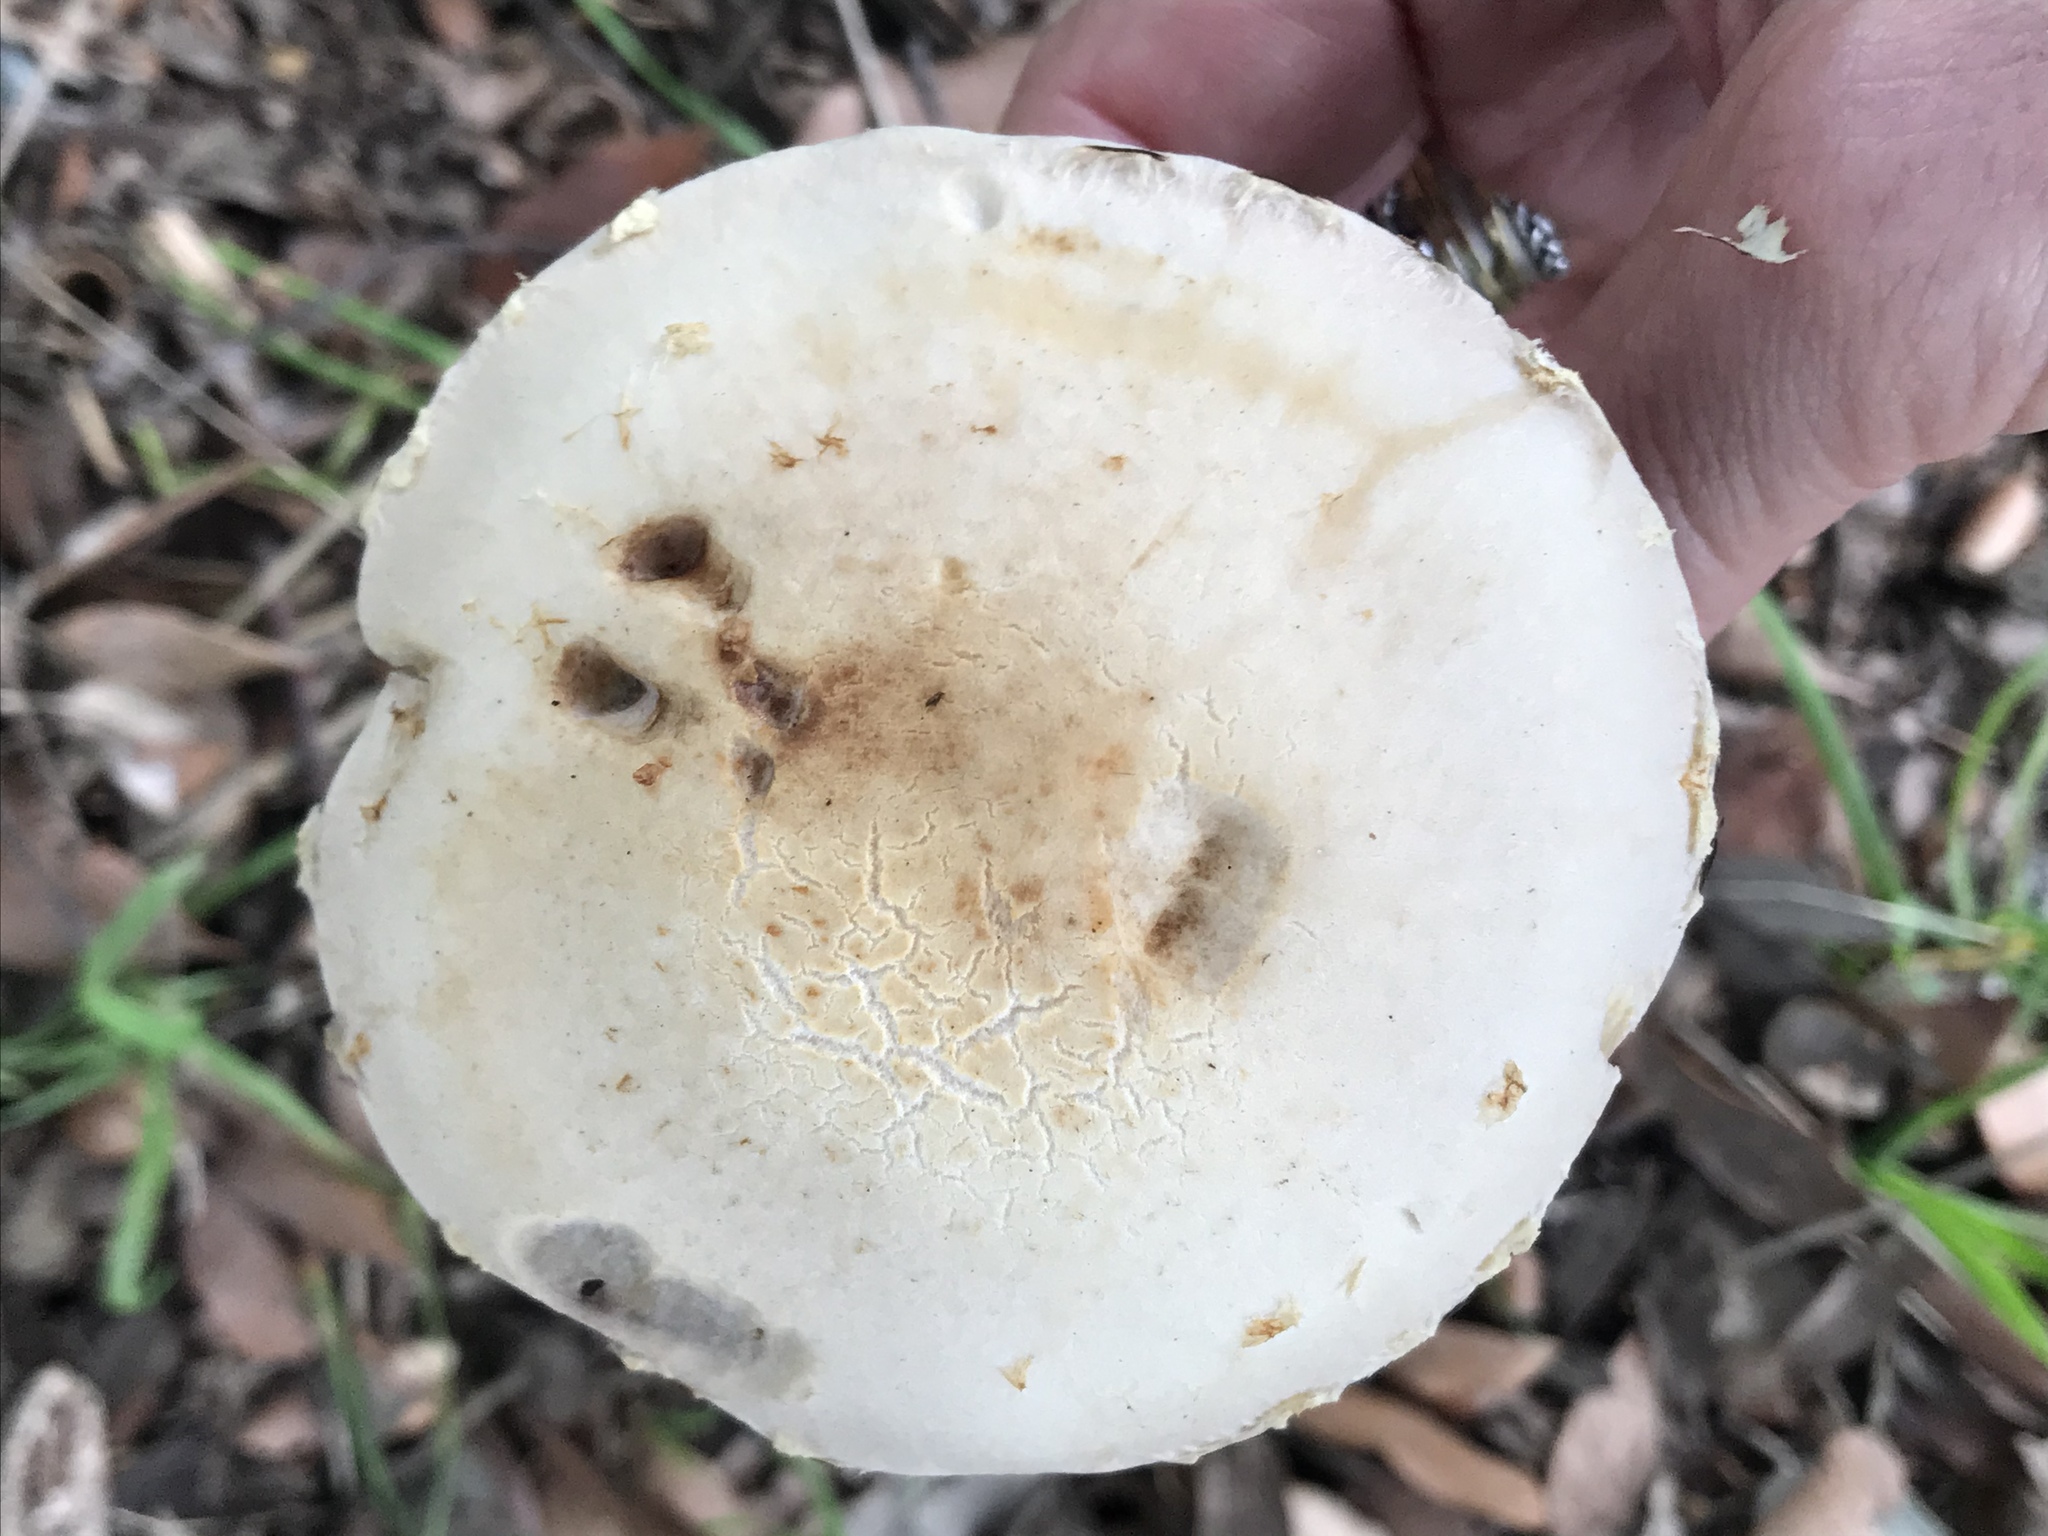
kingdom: Fungi
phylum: Basidiomycota
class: Agaricomycetes
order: Agaricales
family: Strophariaceae
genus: Leratiomyces
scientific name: Leratiomyces percevalii
